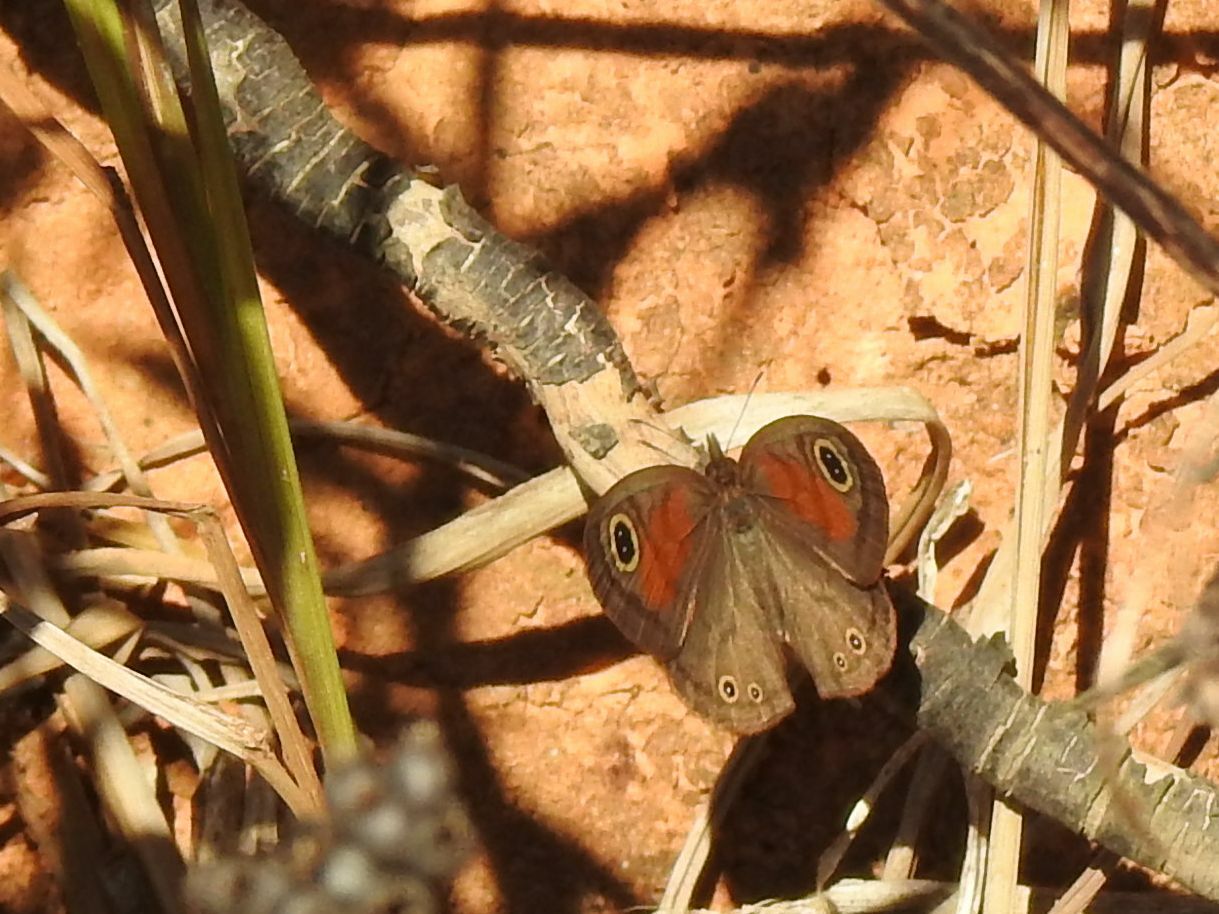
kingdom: Animalia
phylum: Arthropoda
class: Insecta
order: Lepidoptera
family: Nymphalidae
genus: Cassionympha
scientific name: Cassionympha cassius
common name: Rainforest brown
